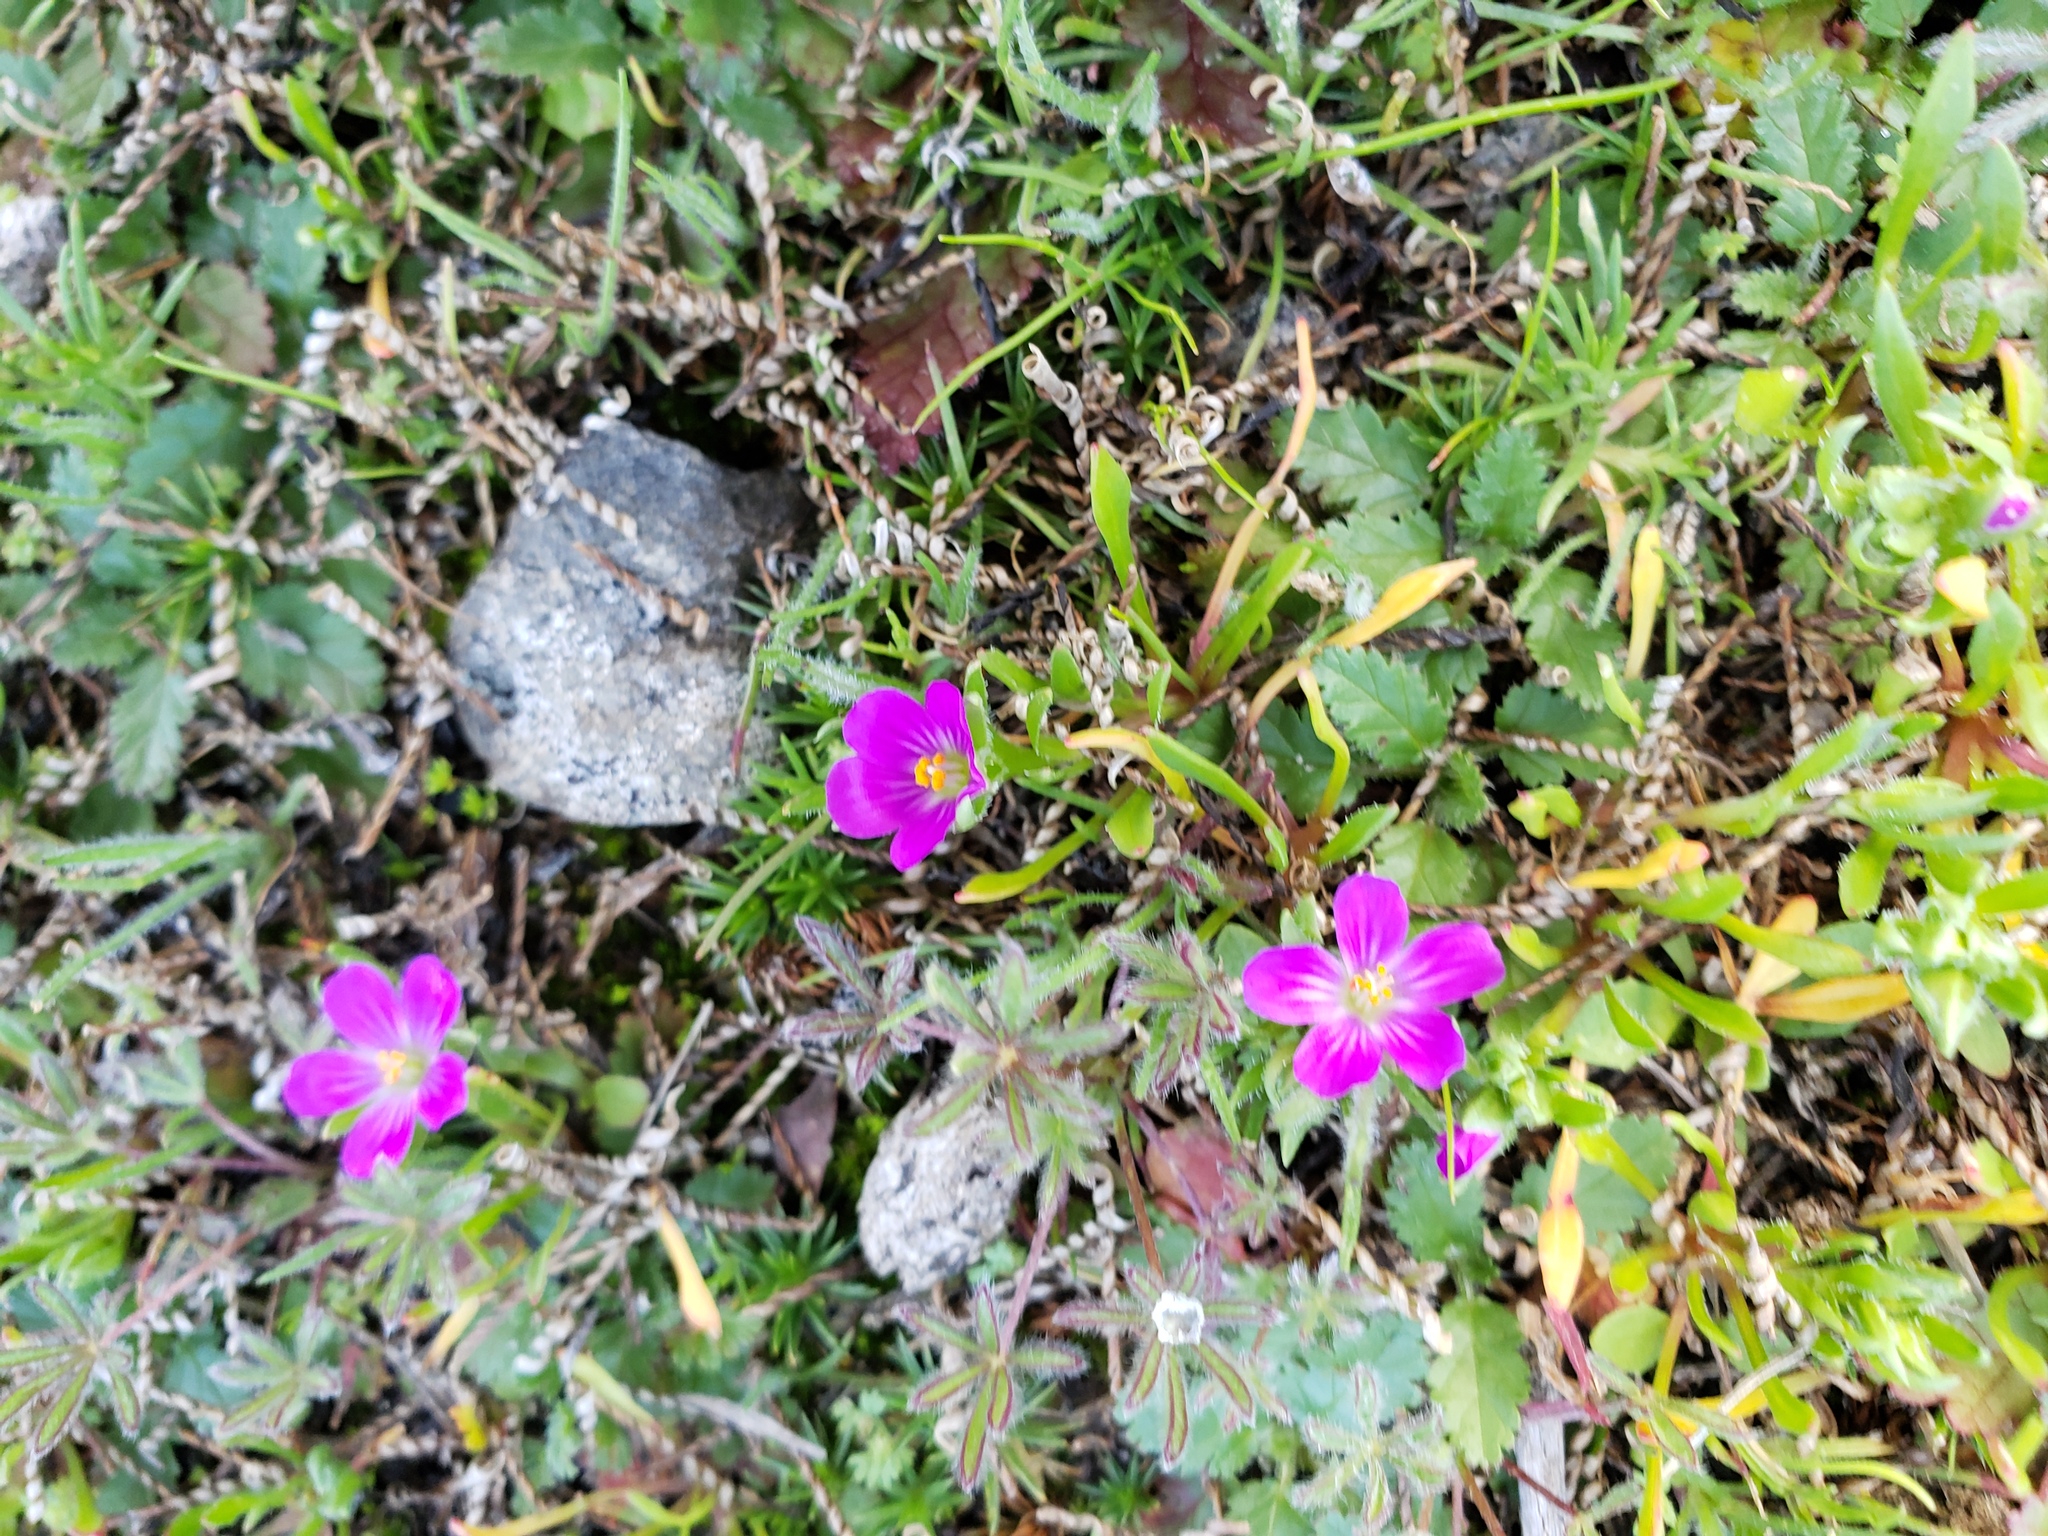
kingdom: Plantae
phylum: Tracheophyta
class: Magnoliopsida
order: Caryophyllales
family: Montiaceae
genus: Calandrinia
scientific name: Calandrinia menziesii
